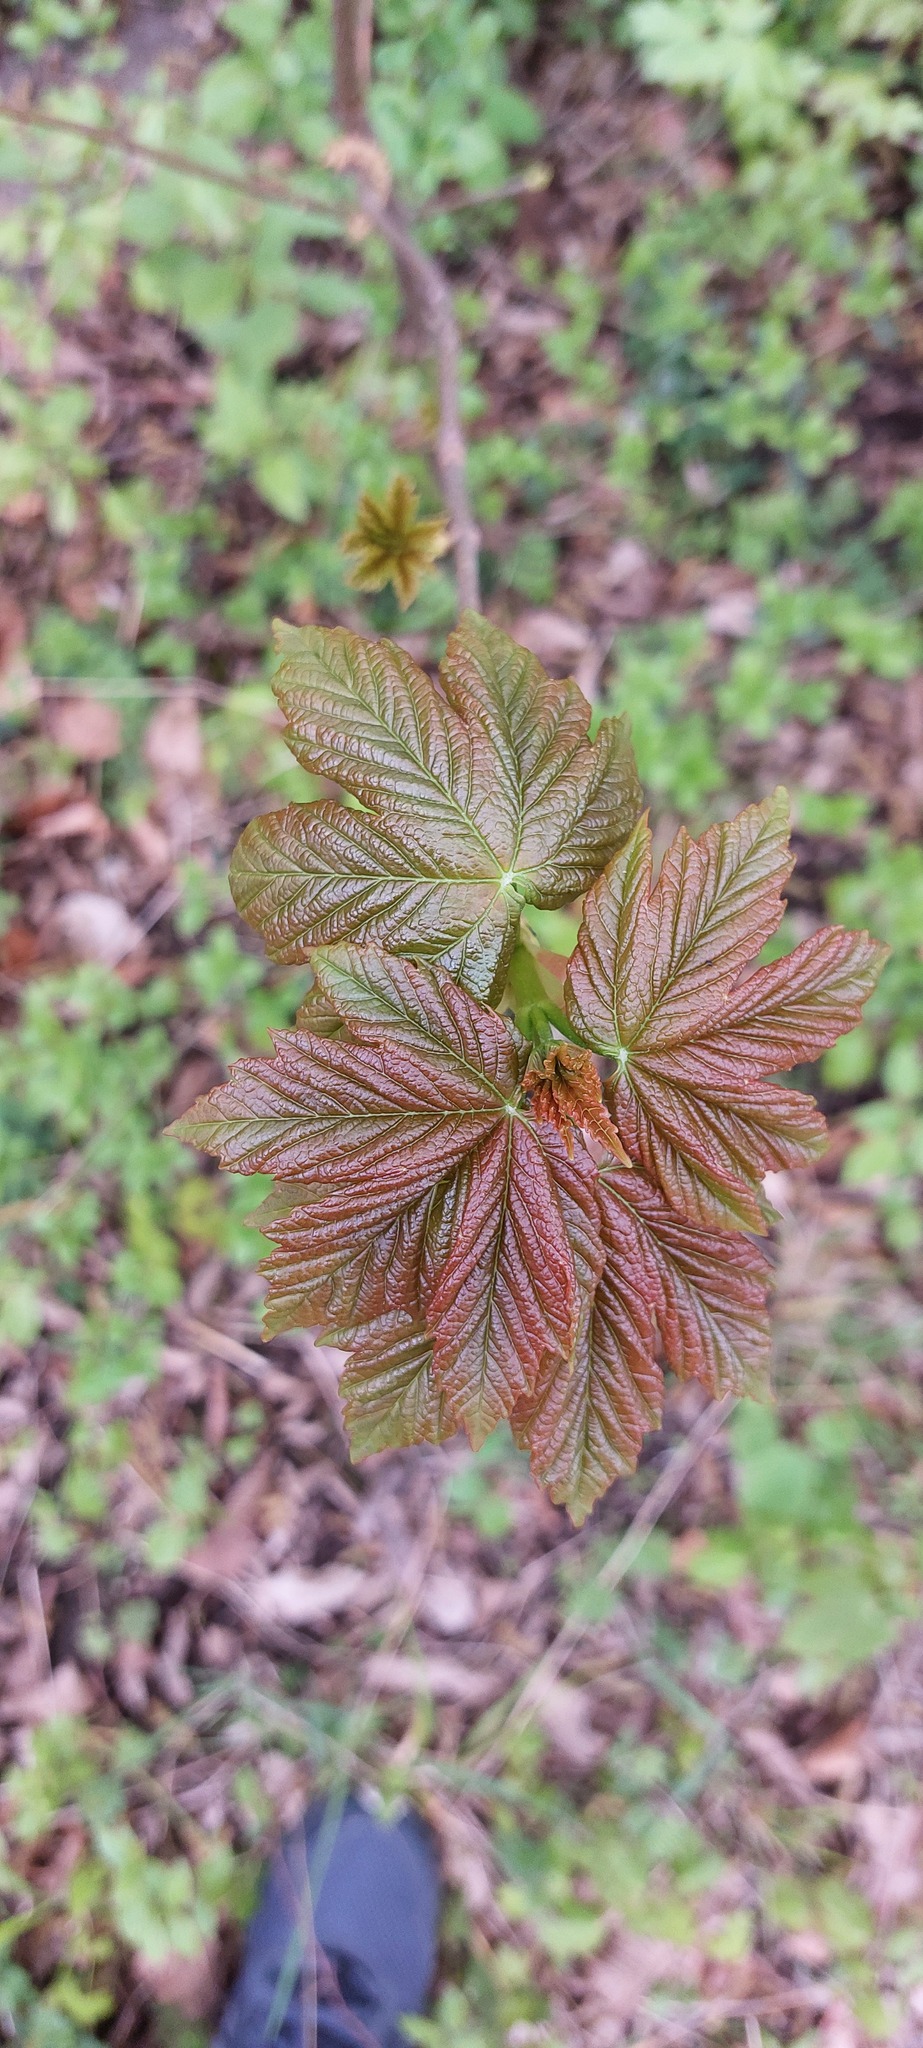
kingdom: Plantae
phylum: Tracheophyta
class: Magnoliopsida
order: Sapindales
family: Sapindaceae
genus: Acer
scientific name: Acer pseudoplatanus
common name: Sycamore
